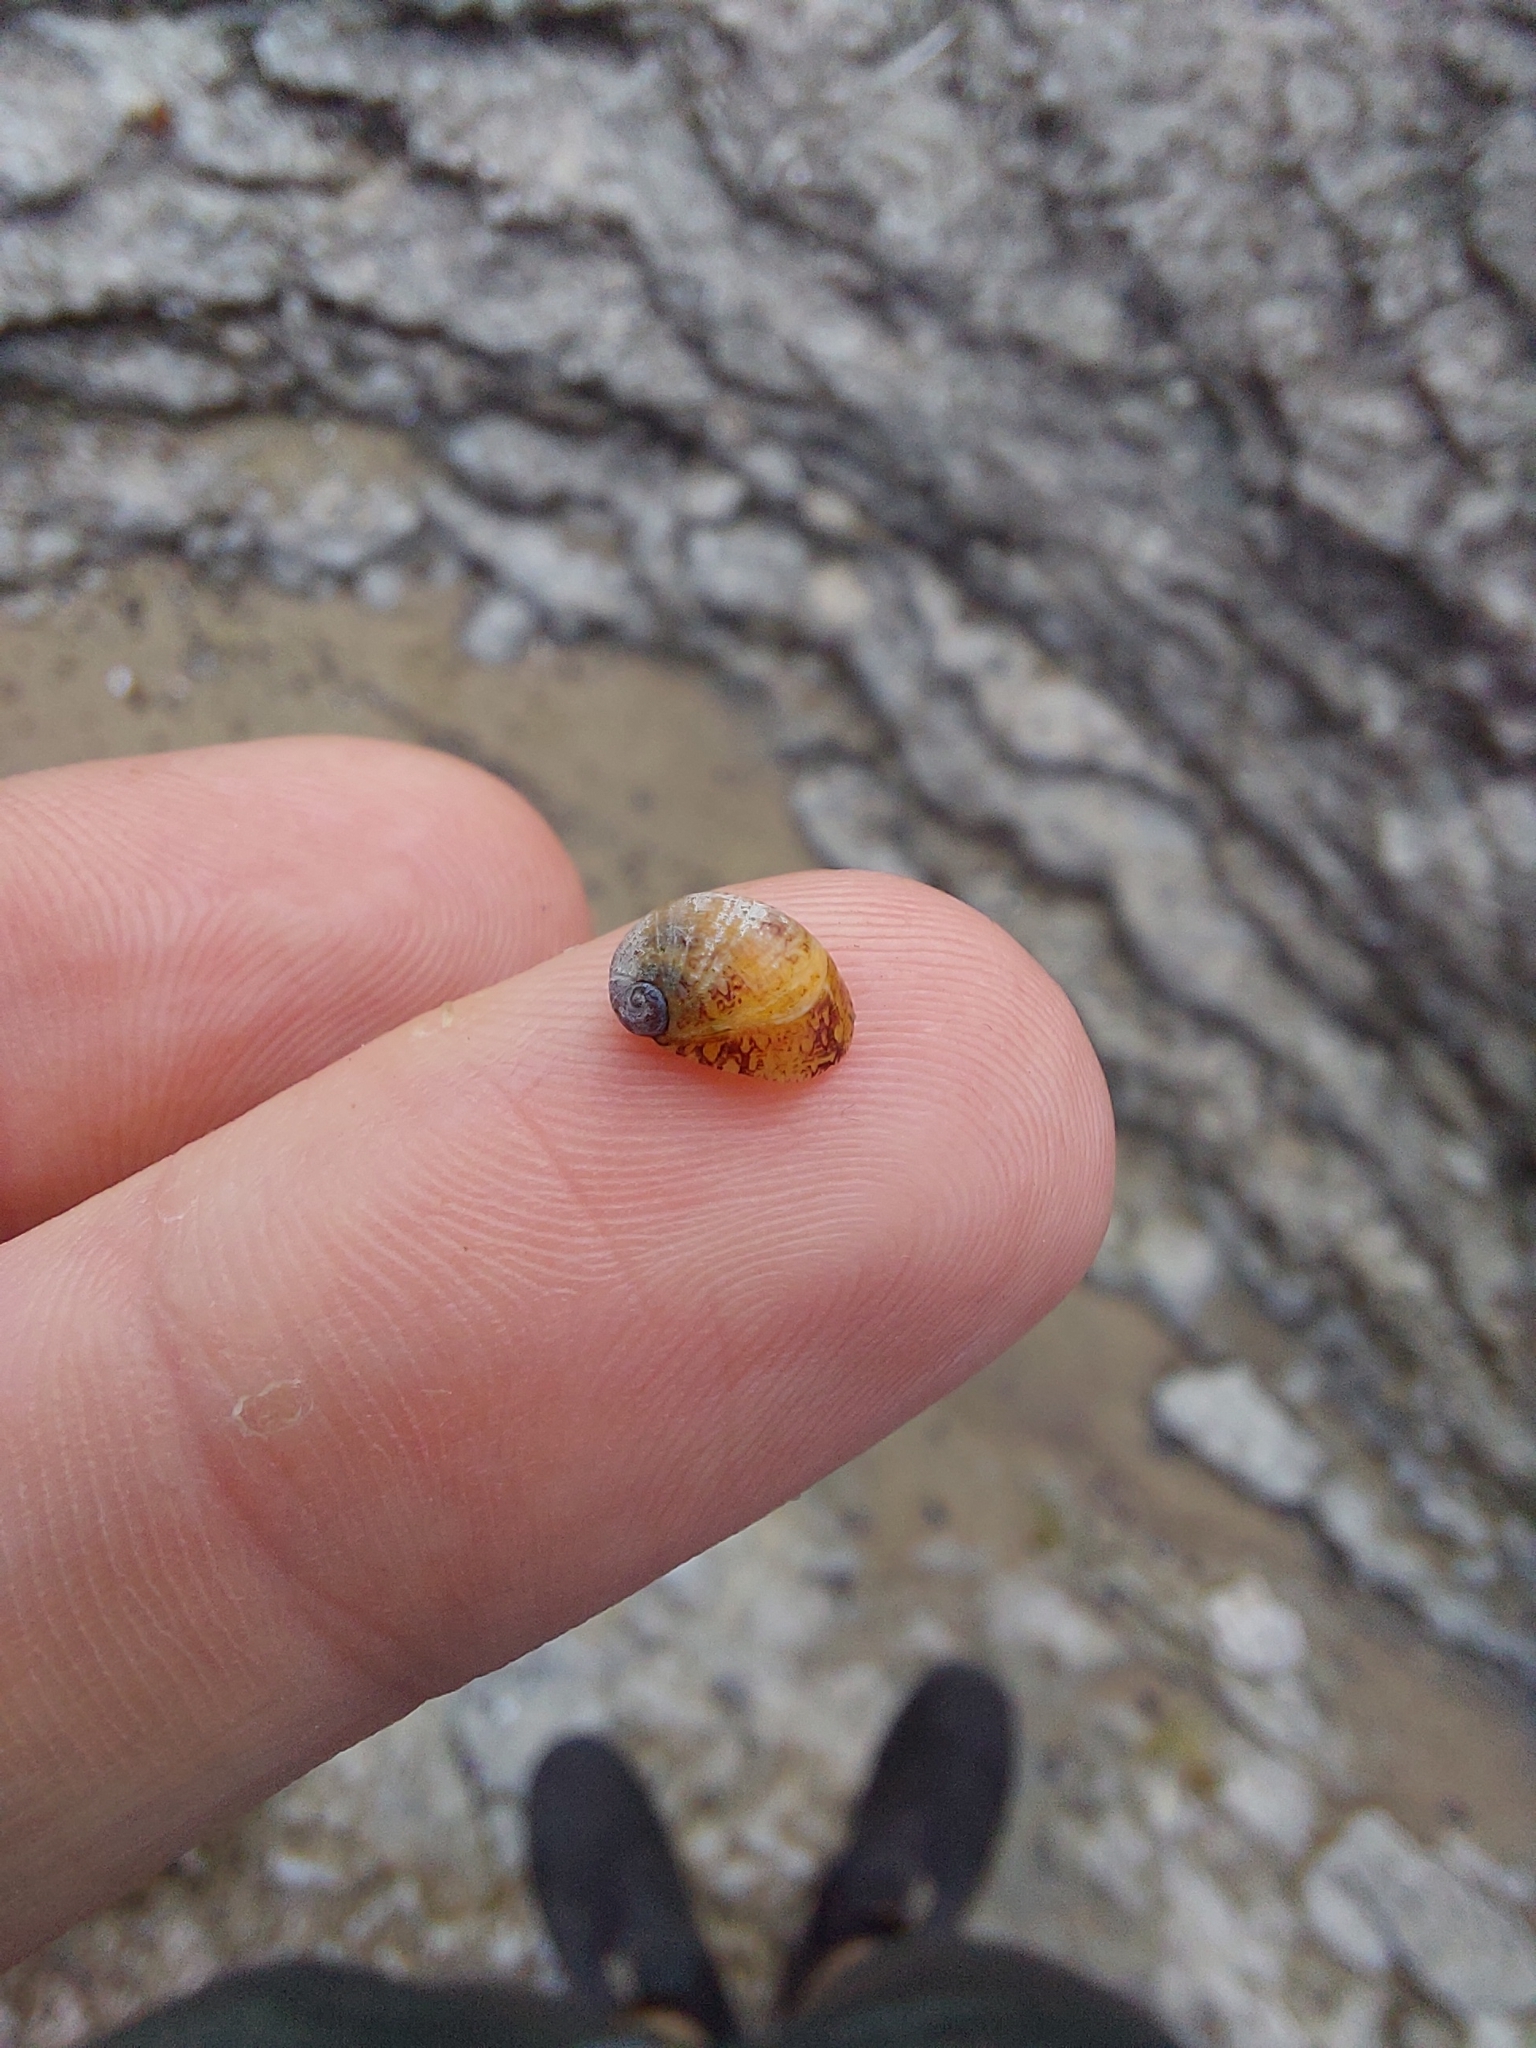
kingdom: Animalia
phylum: Mollusca
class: Gastropoda
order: Cycloneritida
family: Neritidae
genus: Theodoxus
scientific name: Theodoxus fluviatilis
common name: River nerite
